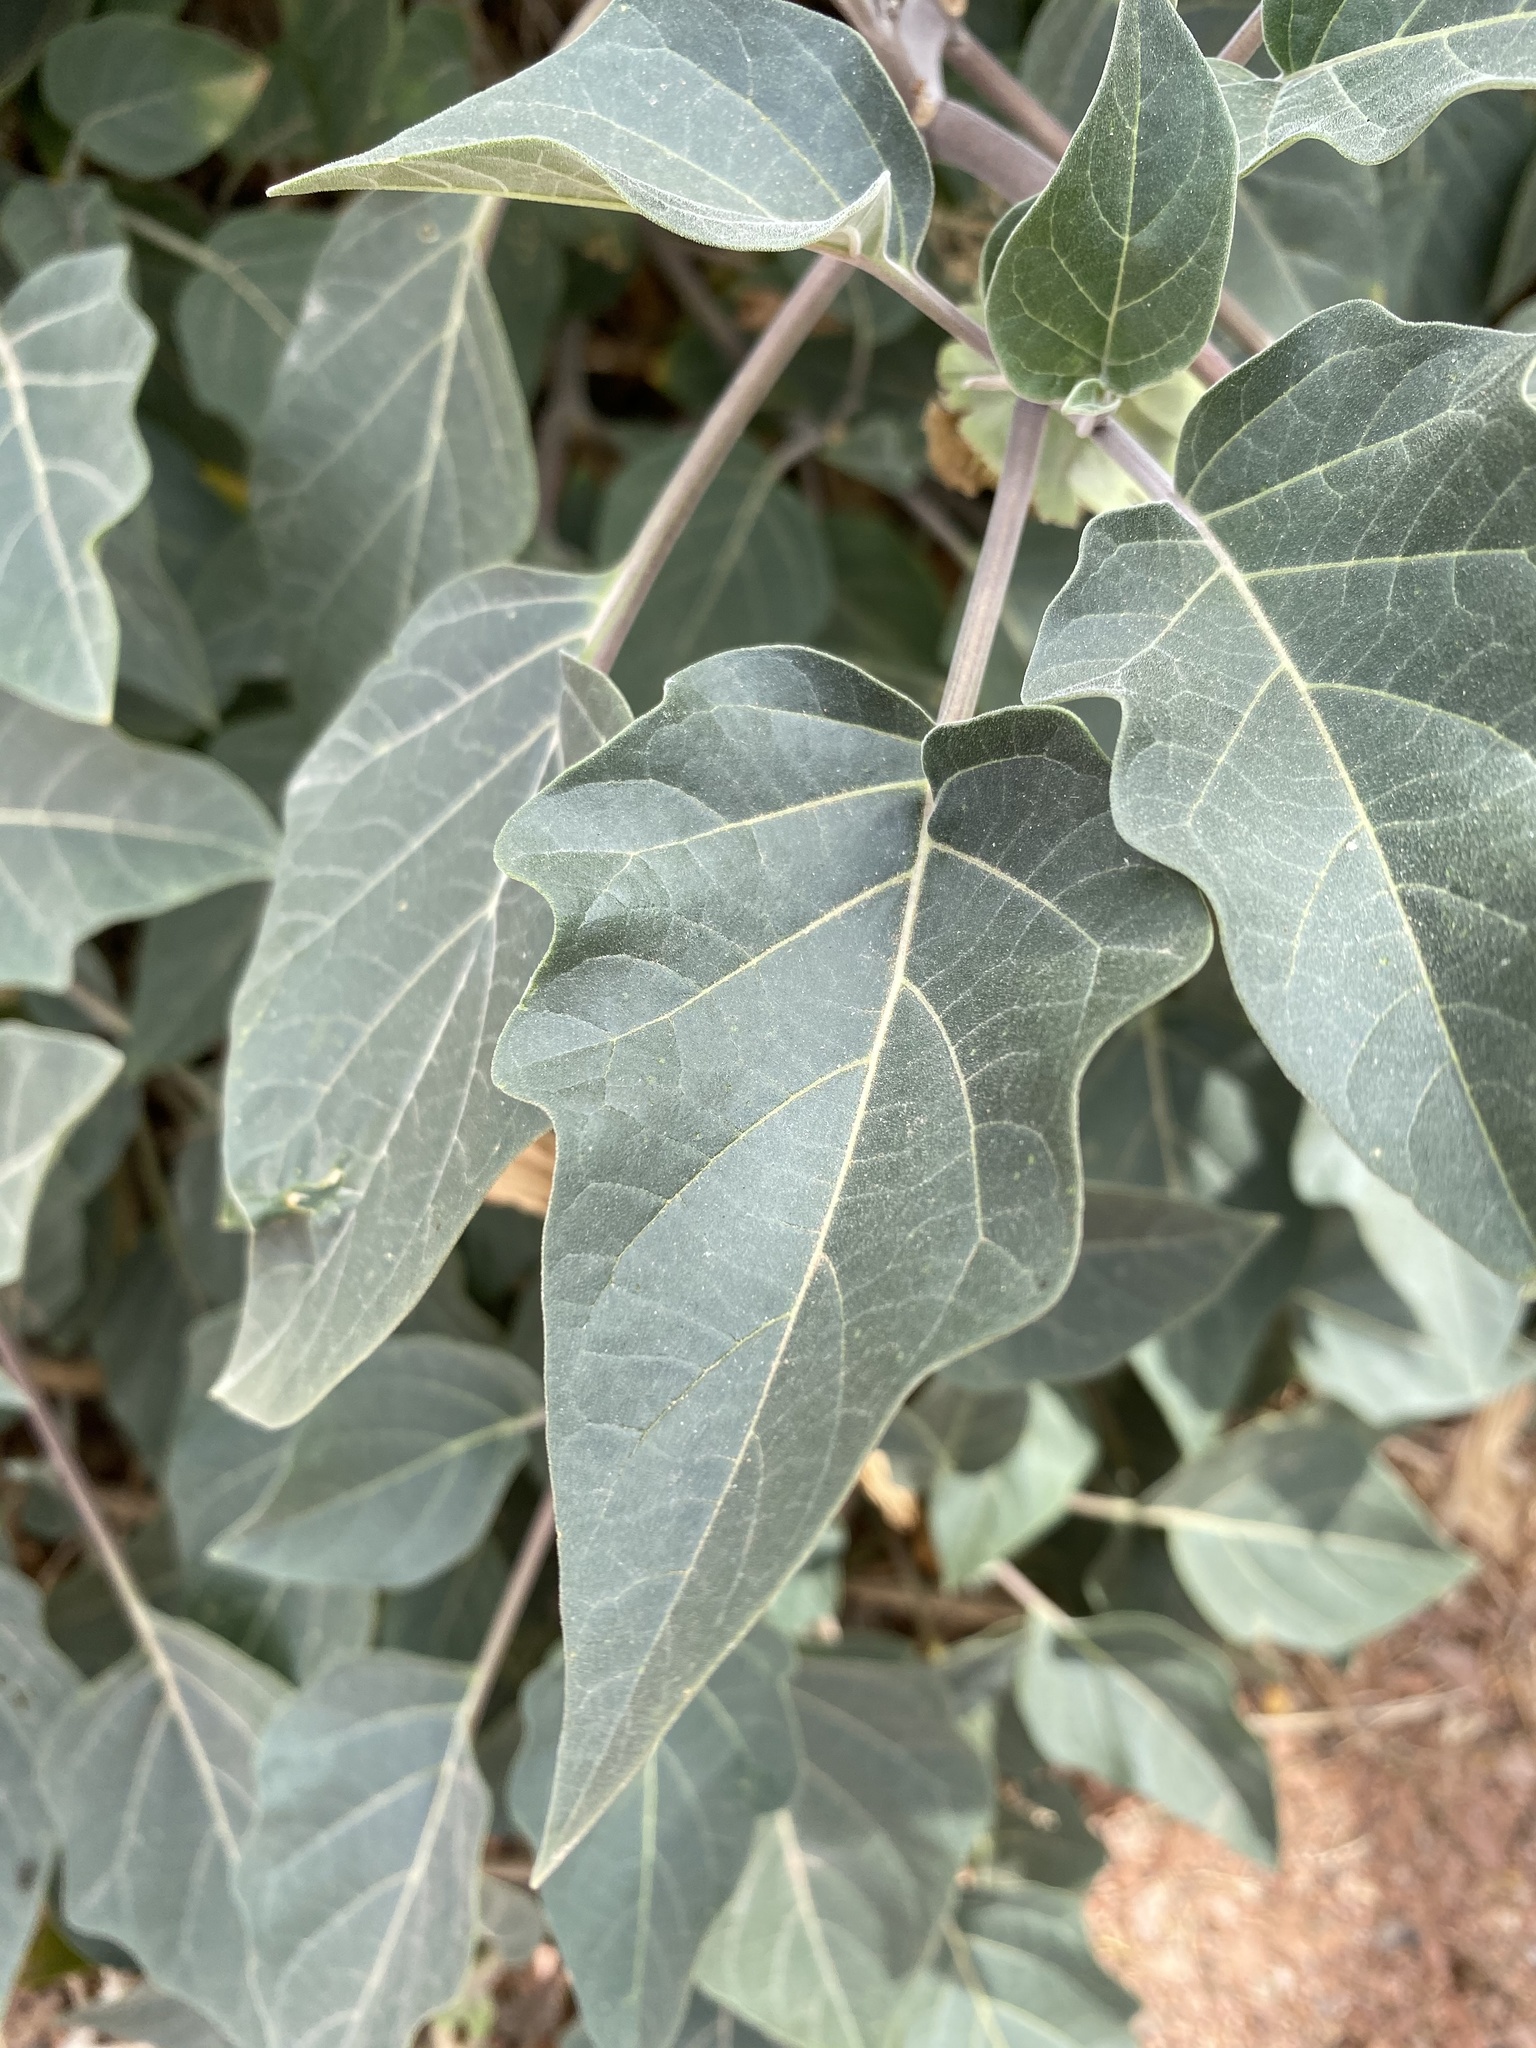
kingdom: Plantae
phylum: Tracheophyta
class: Magnoliopsida
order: Solanales
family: Solanaceae
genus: Datura
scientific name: Datura wrightii
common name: Sacred thorn-apple
